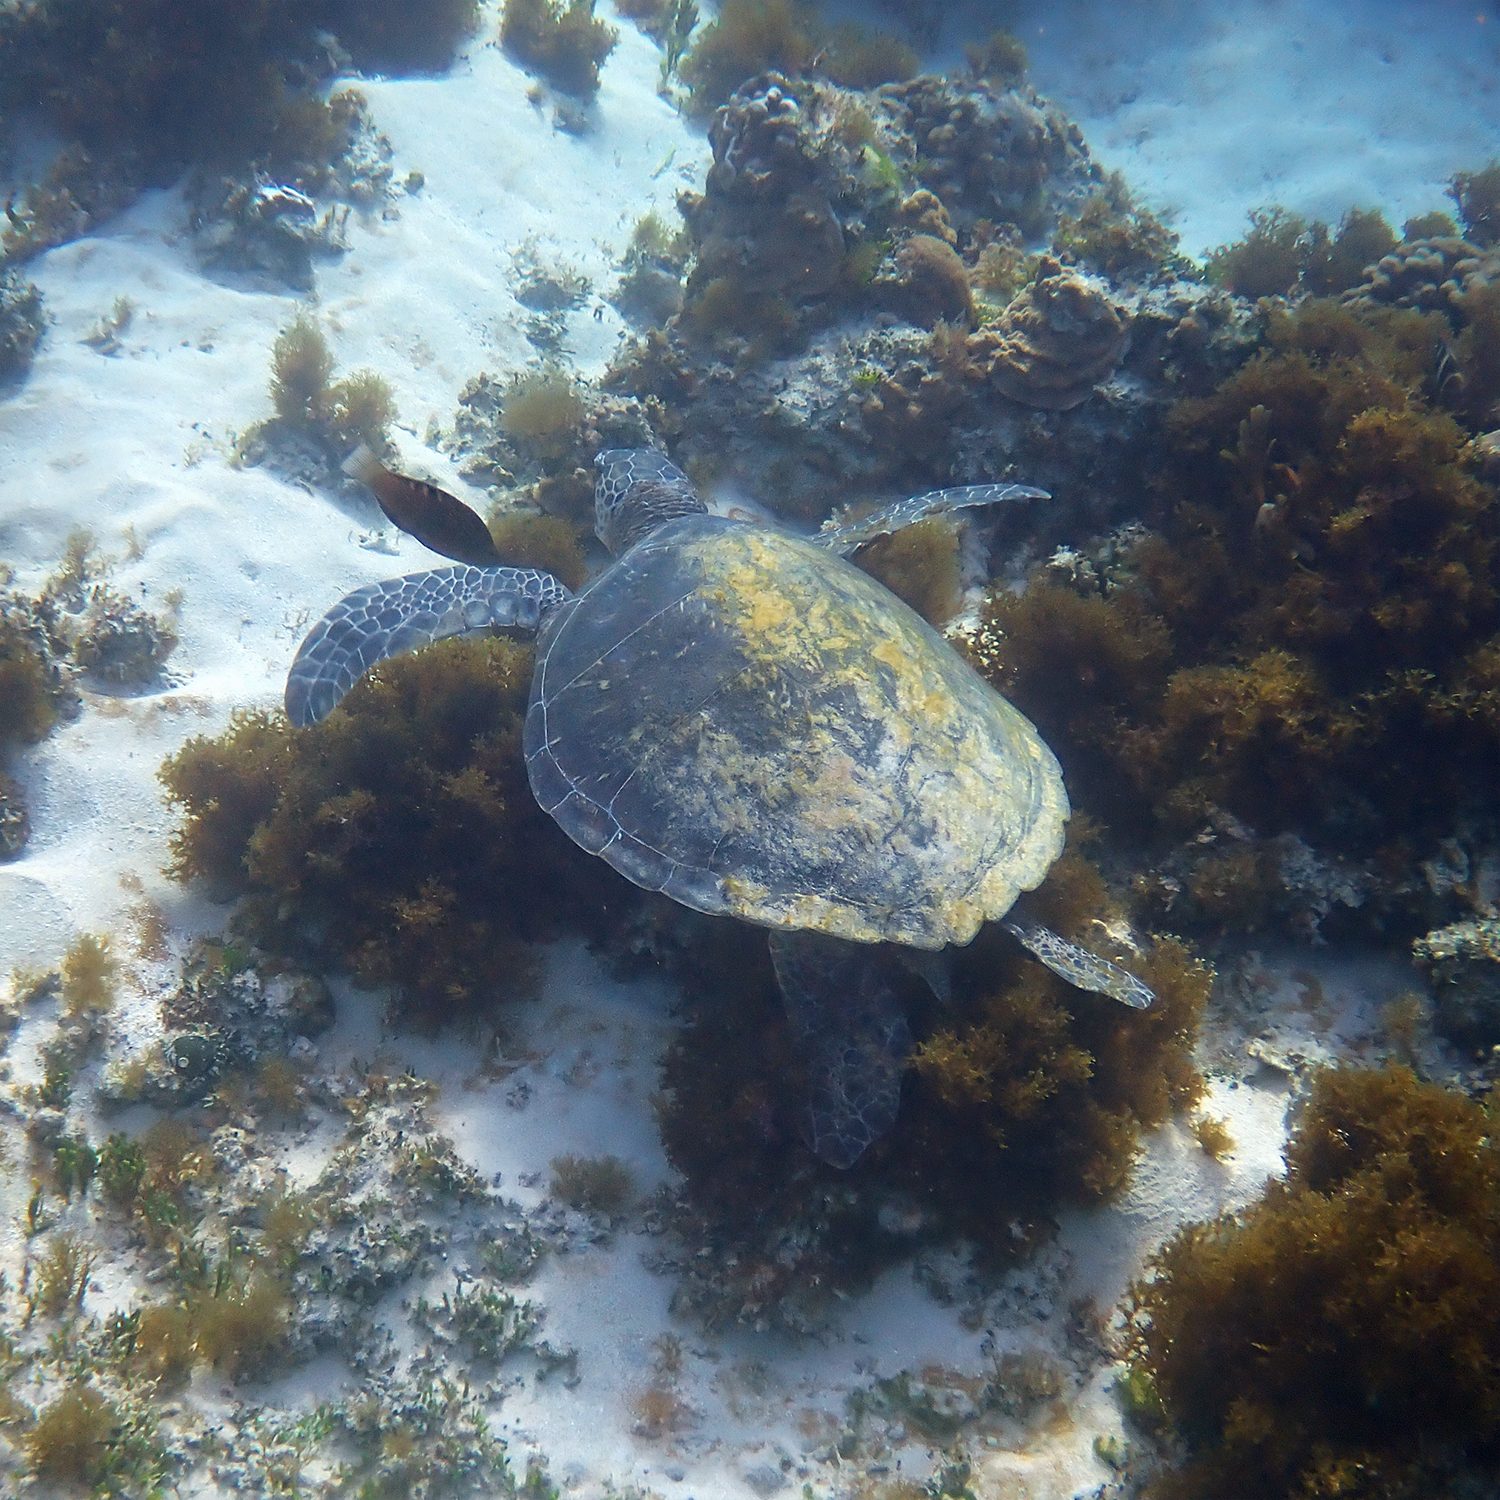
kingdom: Animalia
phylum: Chordata
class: Testudines
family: Cheloniidae
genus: Chelonia
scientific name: Chelonia mydas
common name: Green turtle
